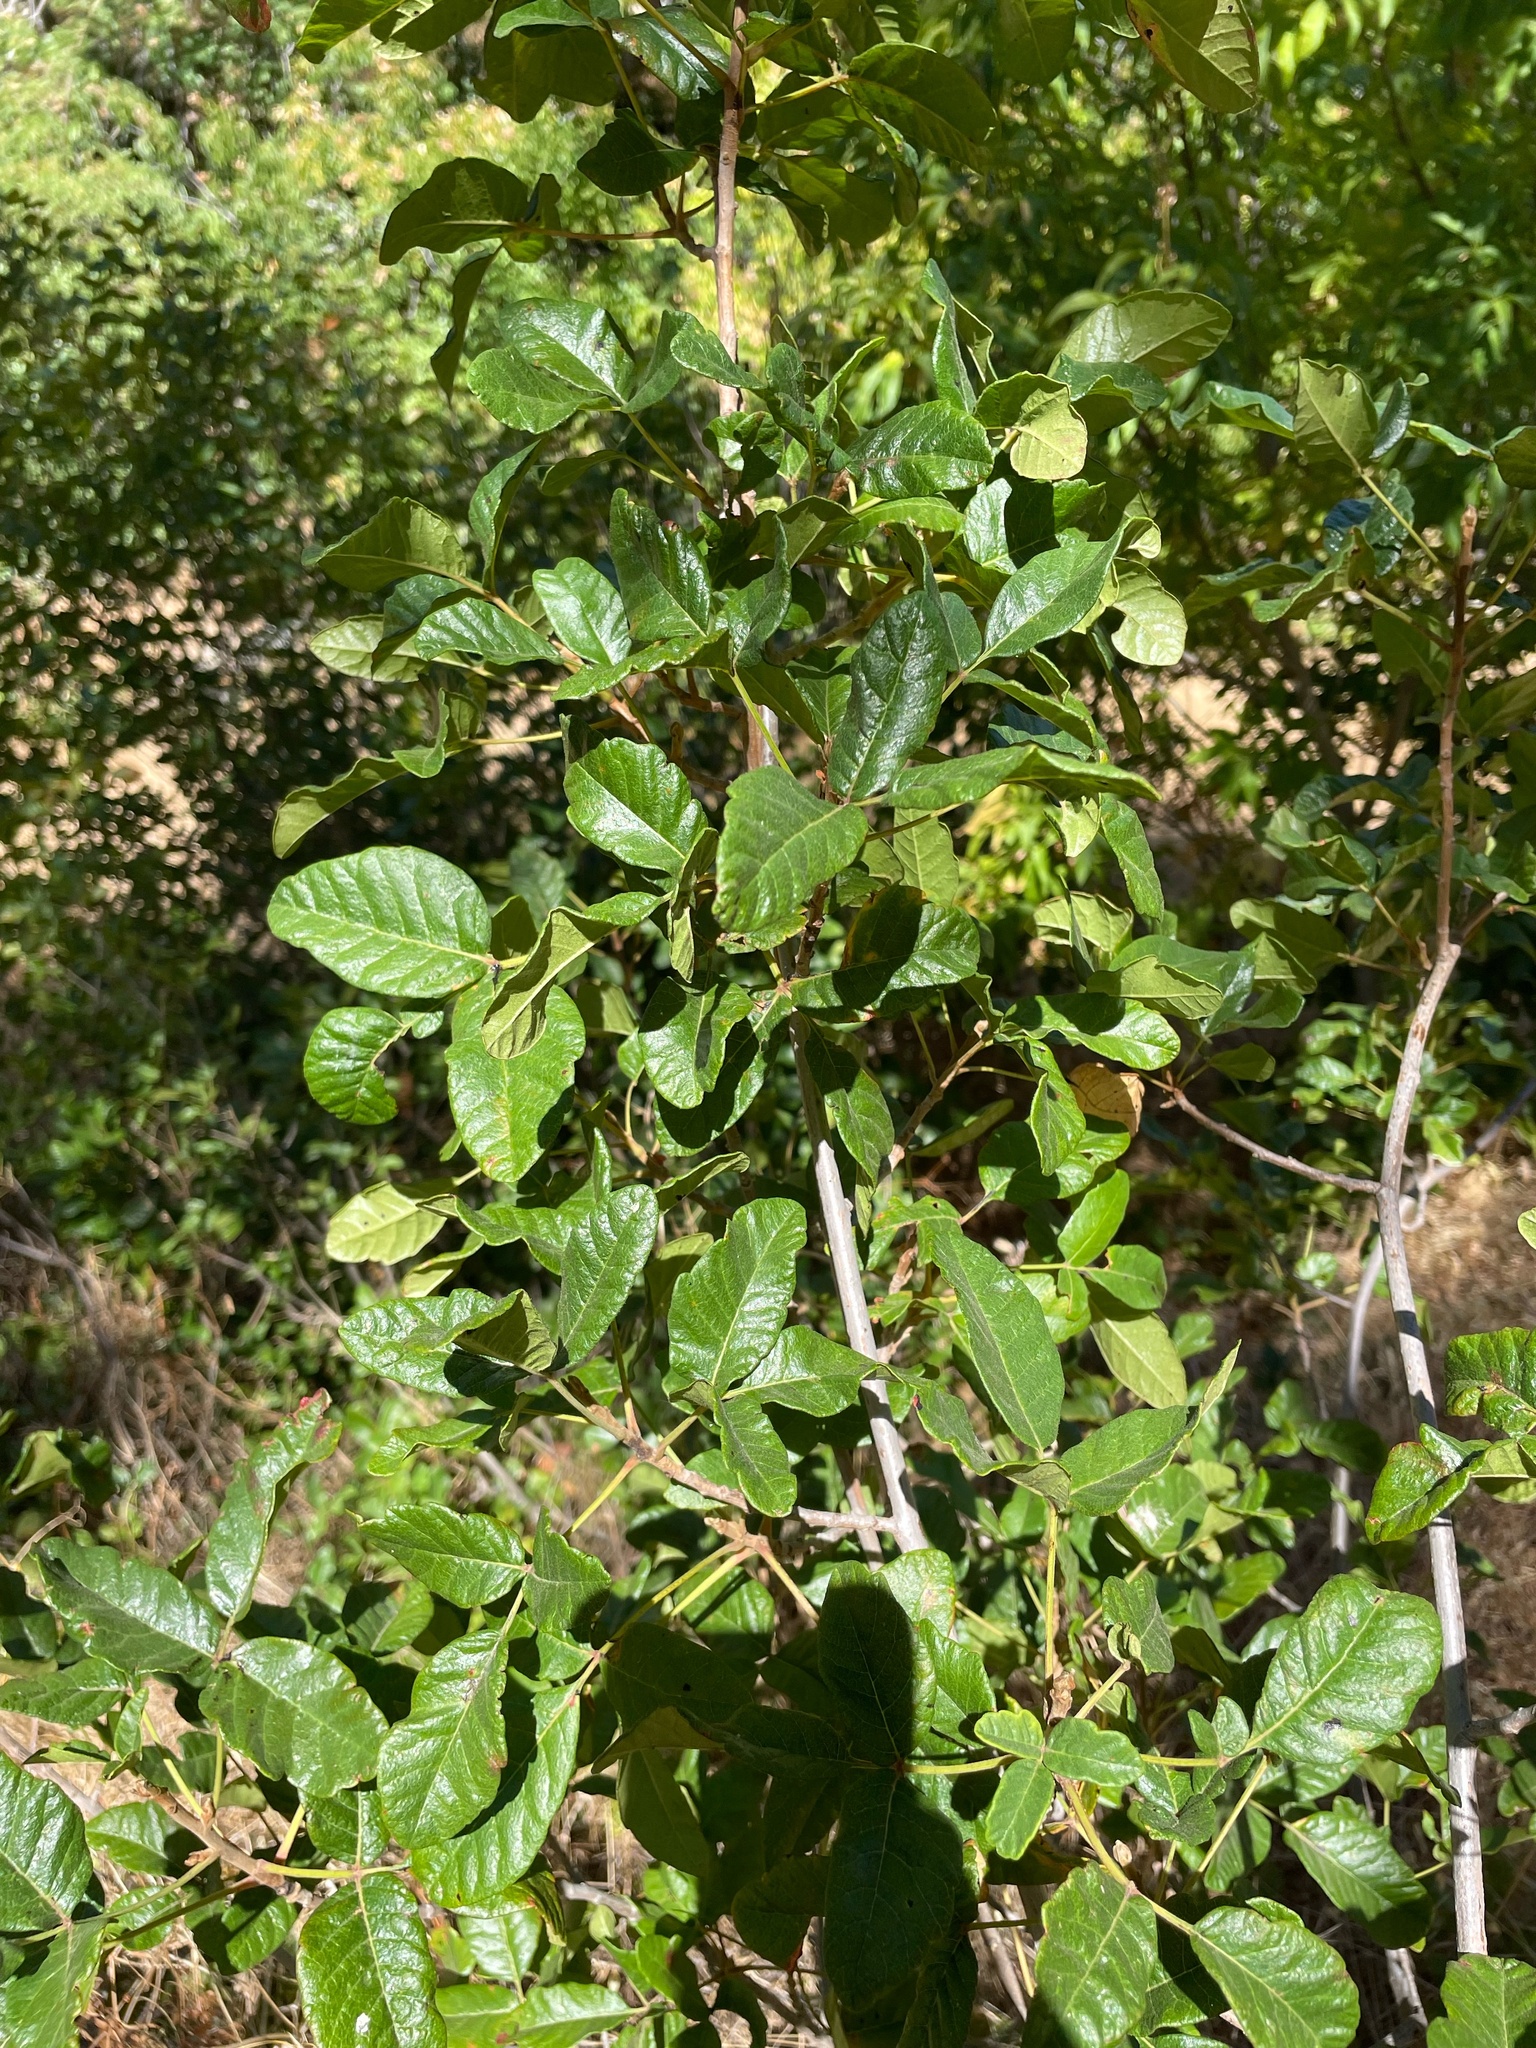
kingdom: Plantae
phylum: Tracheophyta
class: Magnoliopsida
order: Sapindales
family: Anacardiaceae
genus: Toxicodendron
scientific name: Toxicodendron diversilobum
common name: Pacific poison-oak
